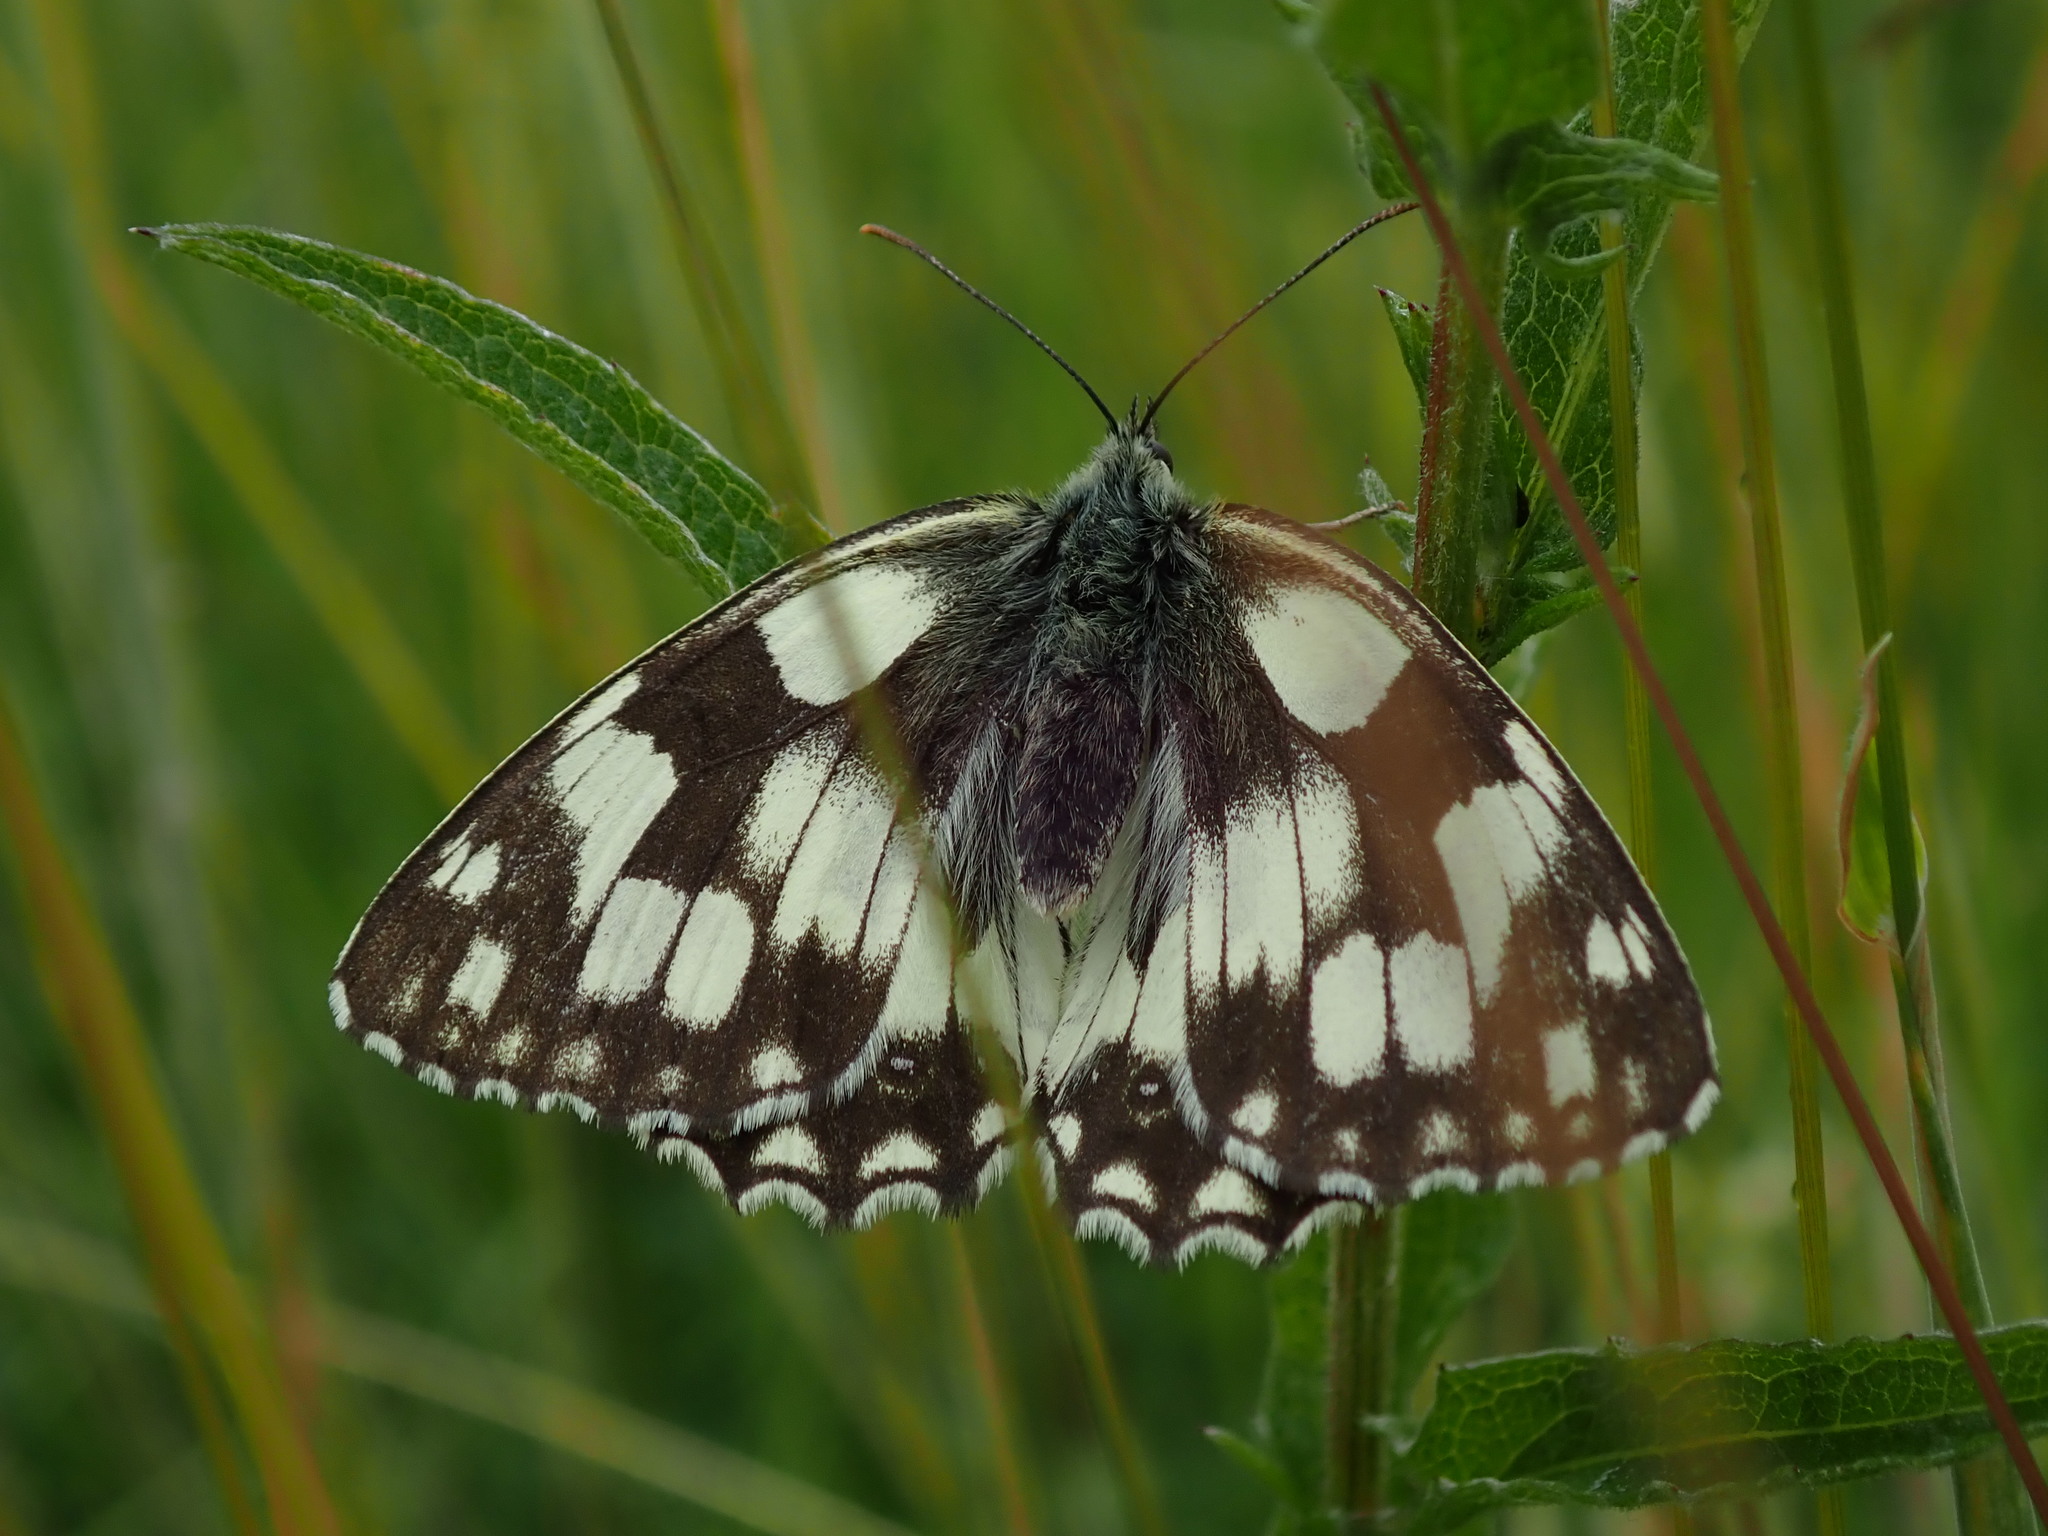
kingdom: Animalia
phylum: Arthropoda
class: Insecta
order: Lepidoptera
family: Nymphalidae
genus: Melanargia
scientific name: Melanargia galathea
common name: Marbled white
